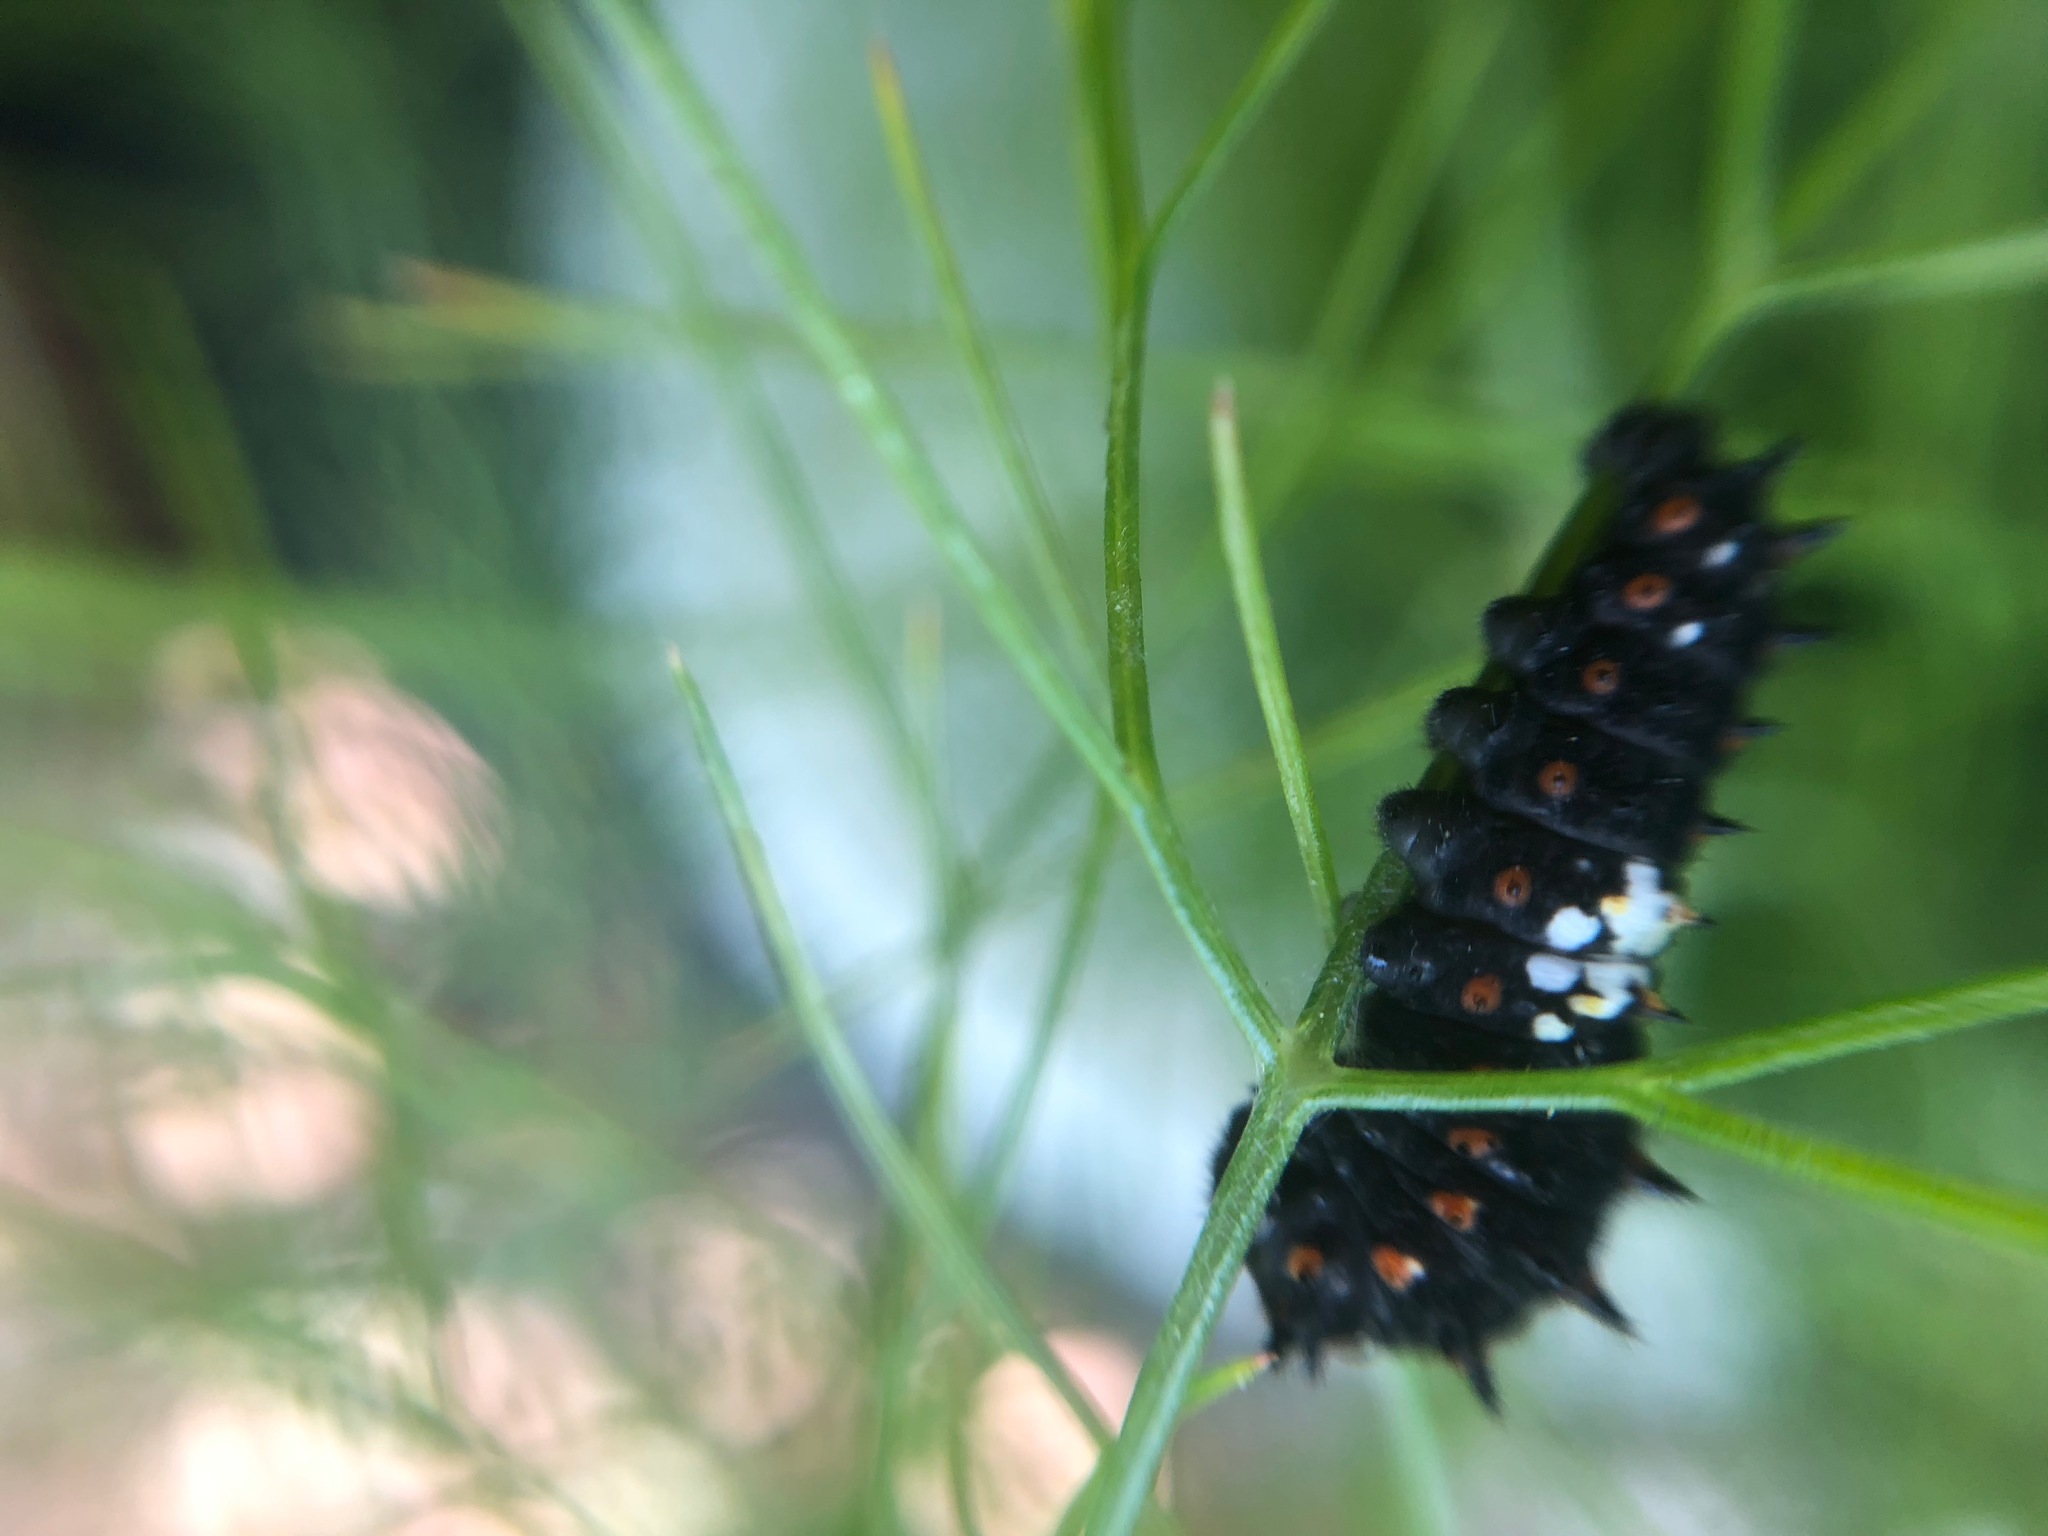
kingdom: Animalia
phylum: Arthropoda
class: Insecta
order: Lepidoptera
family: Papilionidae
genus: Papilio
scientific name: Papilio zelicaon
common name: Anise swallowtail
